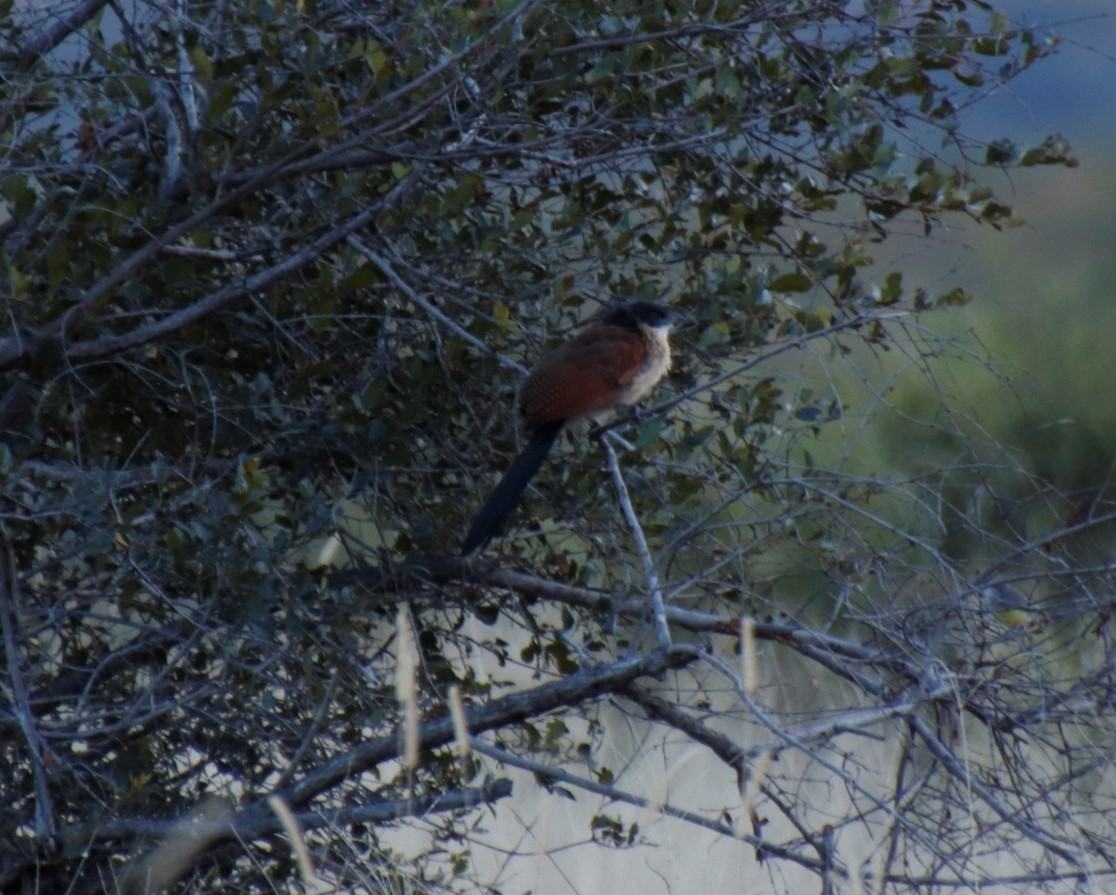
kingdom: Animalia
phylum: Chordata
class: Aves
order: Cuculiformes
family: Cuculidae
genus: Centropus
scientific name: Centropus superciliosus
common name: White-browed coucal
